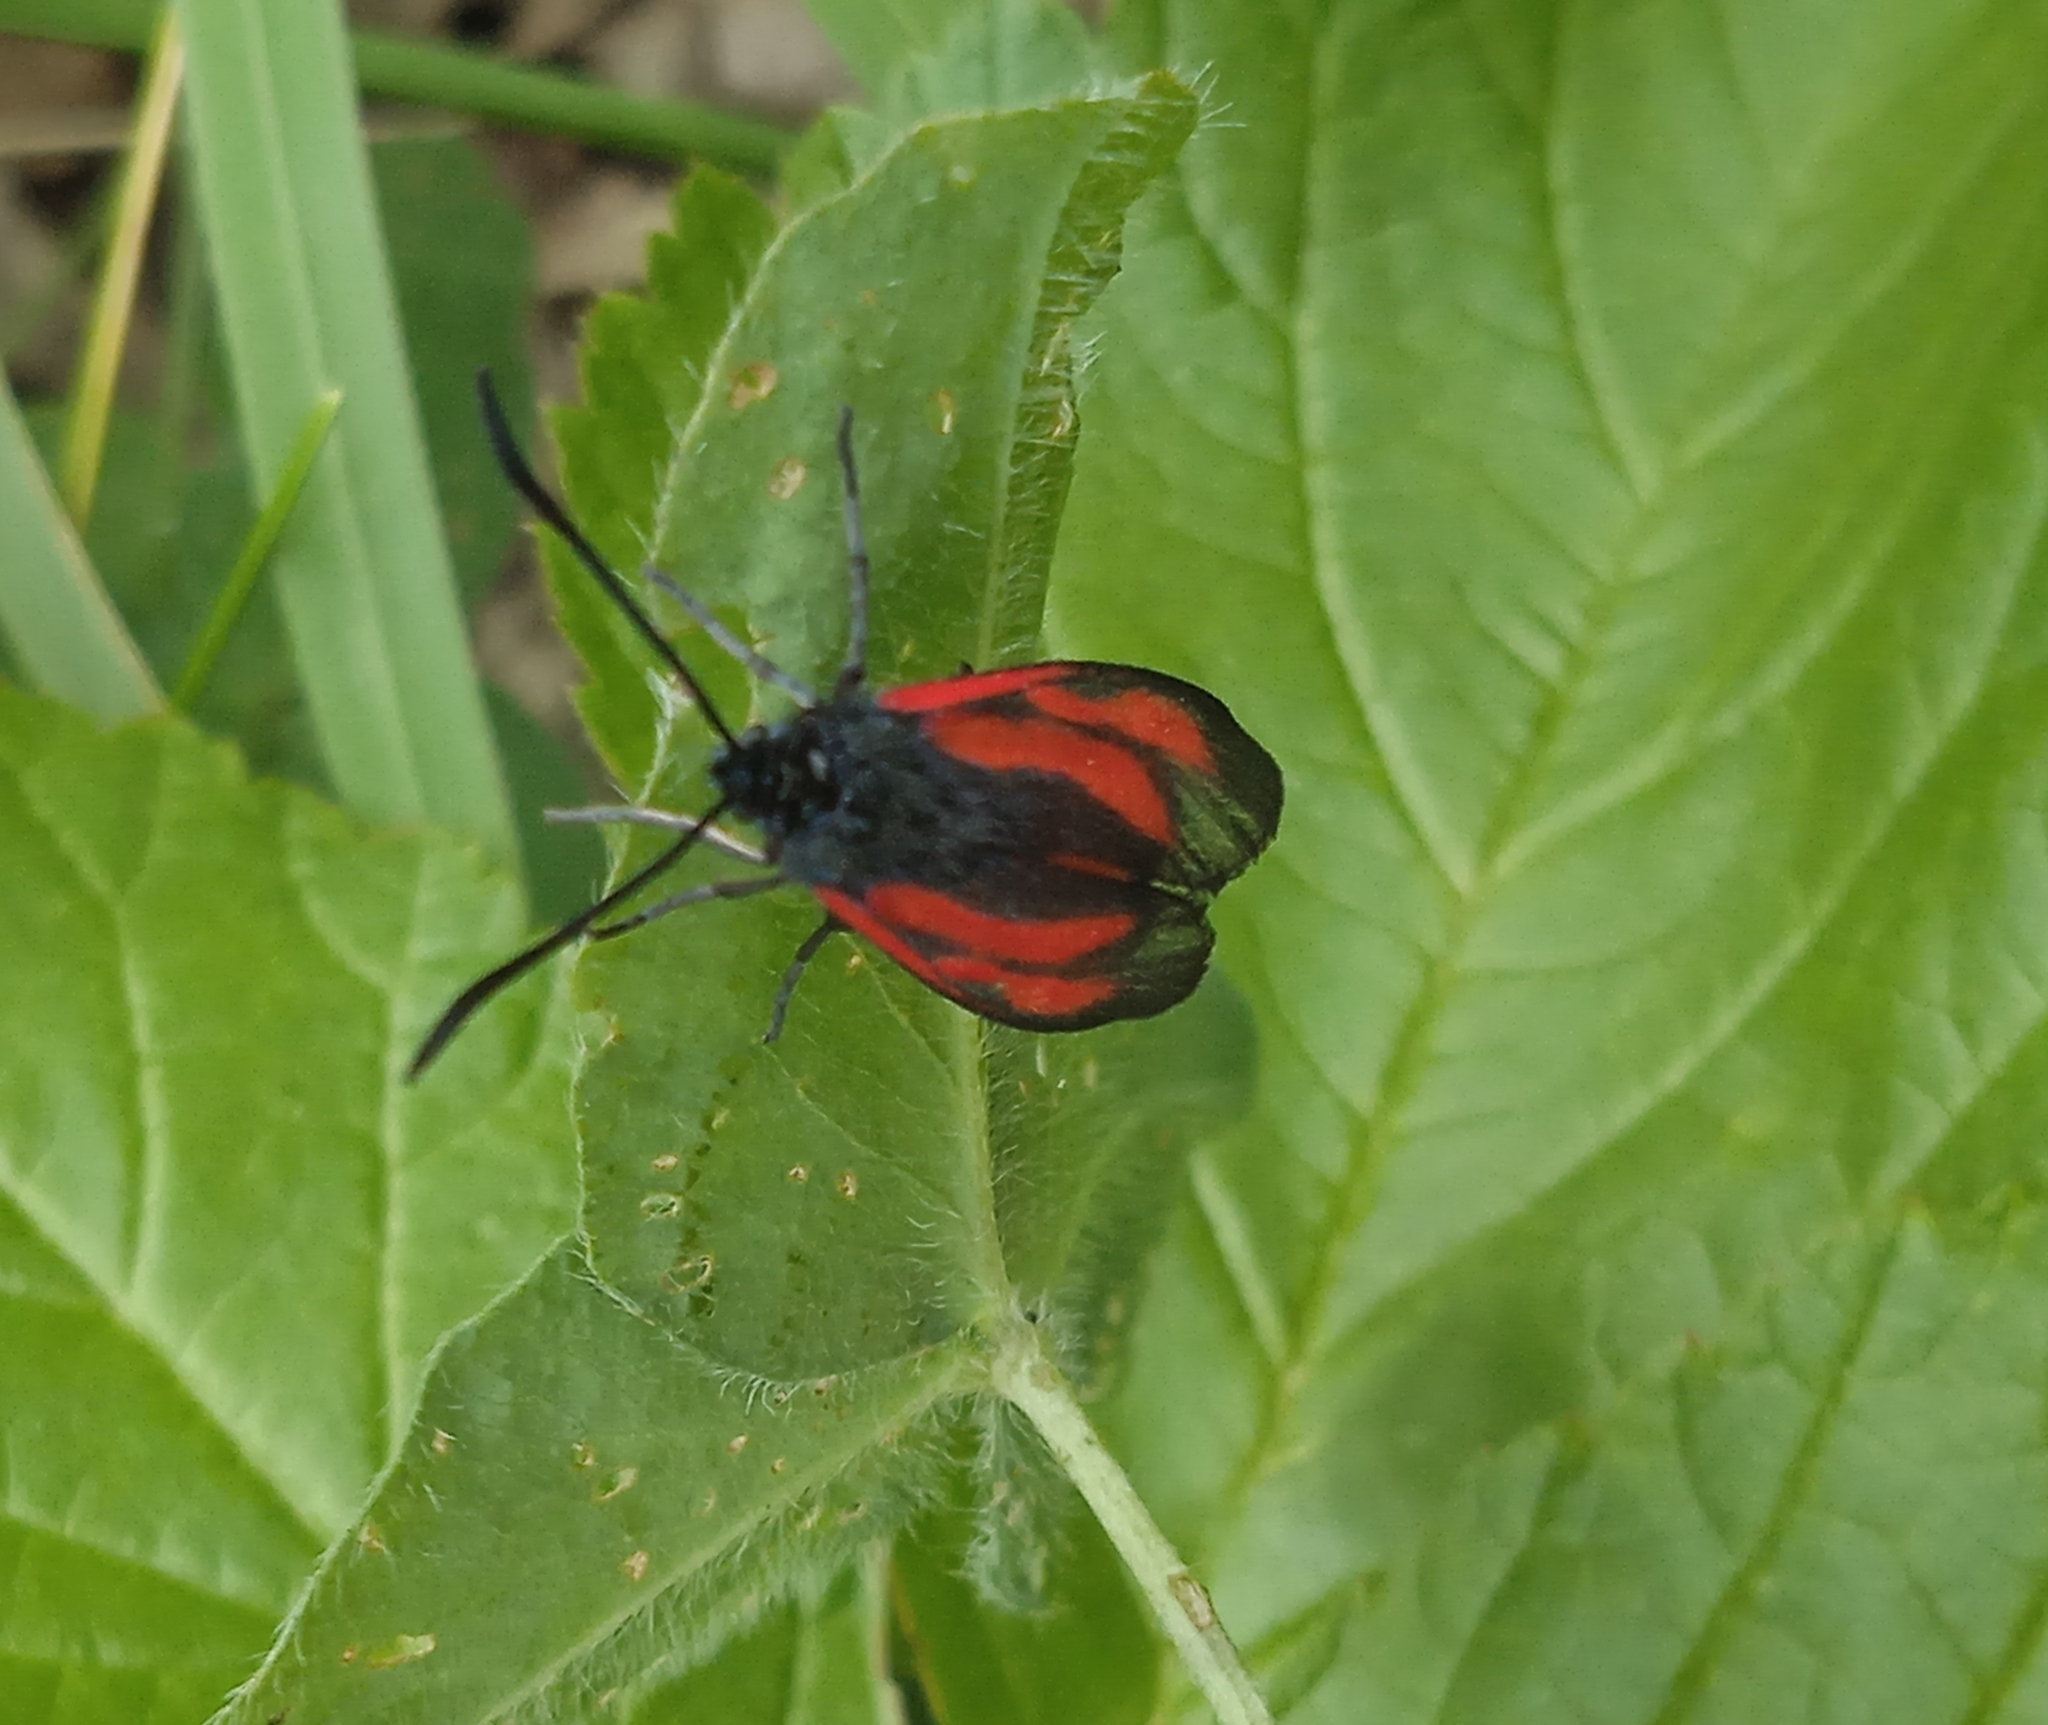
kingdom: Animalia
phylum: Arthropoda
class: Insecta
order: Lepidoptera
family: Zygaenidae
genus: Zygaena
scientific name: Zygaena osterodensis
